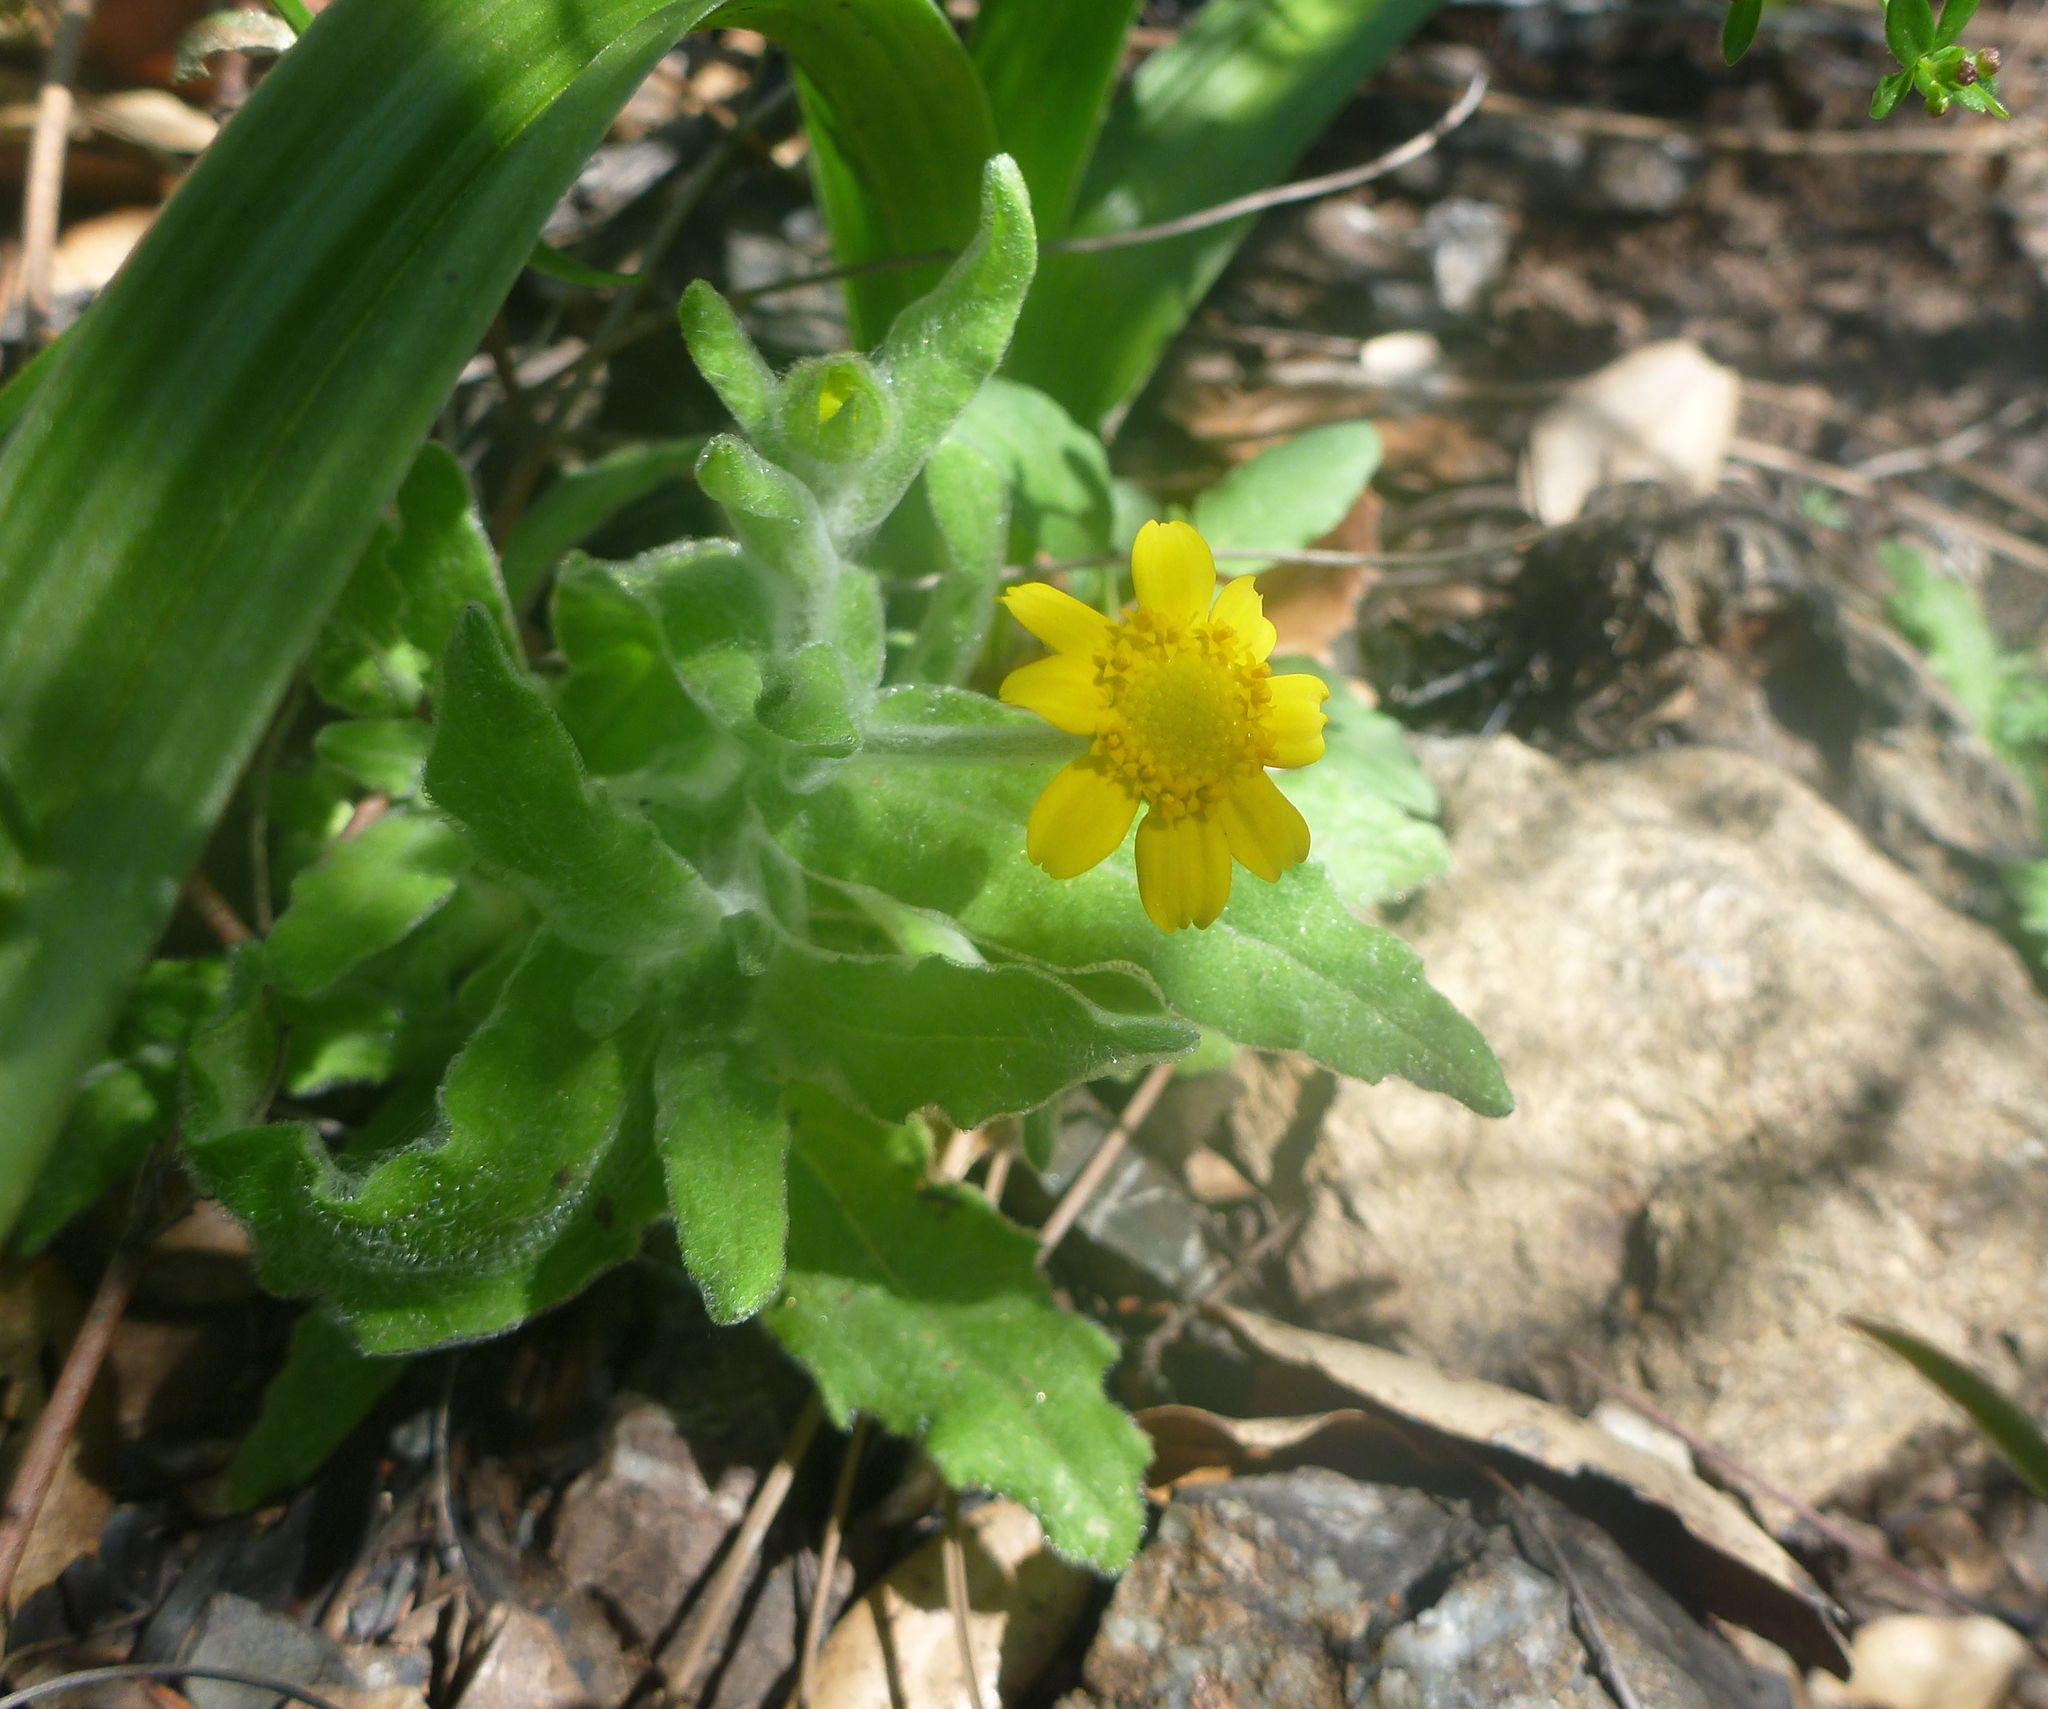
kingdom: Plantae
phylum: Tracheophyta
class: Magnoliopsida
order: Asterales
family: Asteraceae
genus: Monolopia
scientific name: Monolopia gracilens
